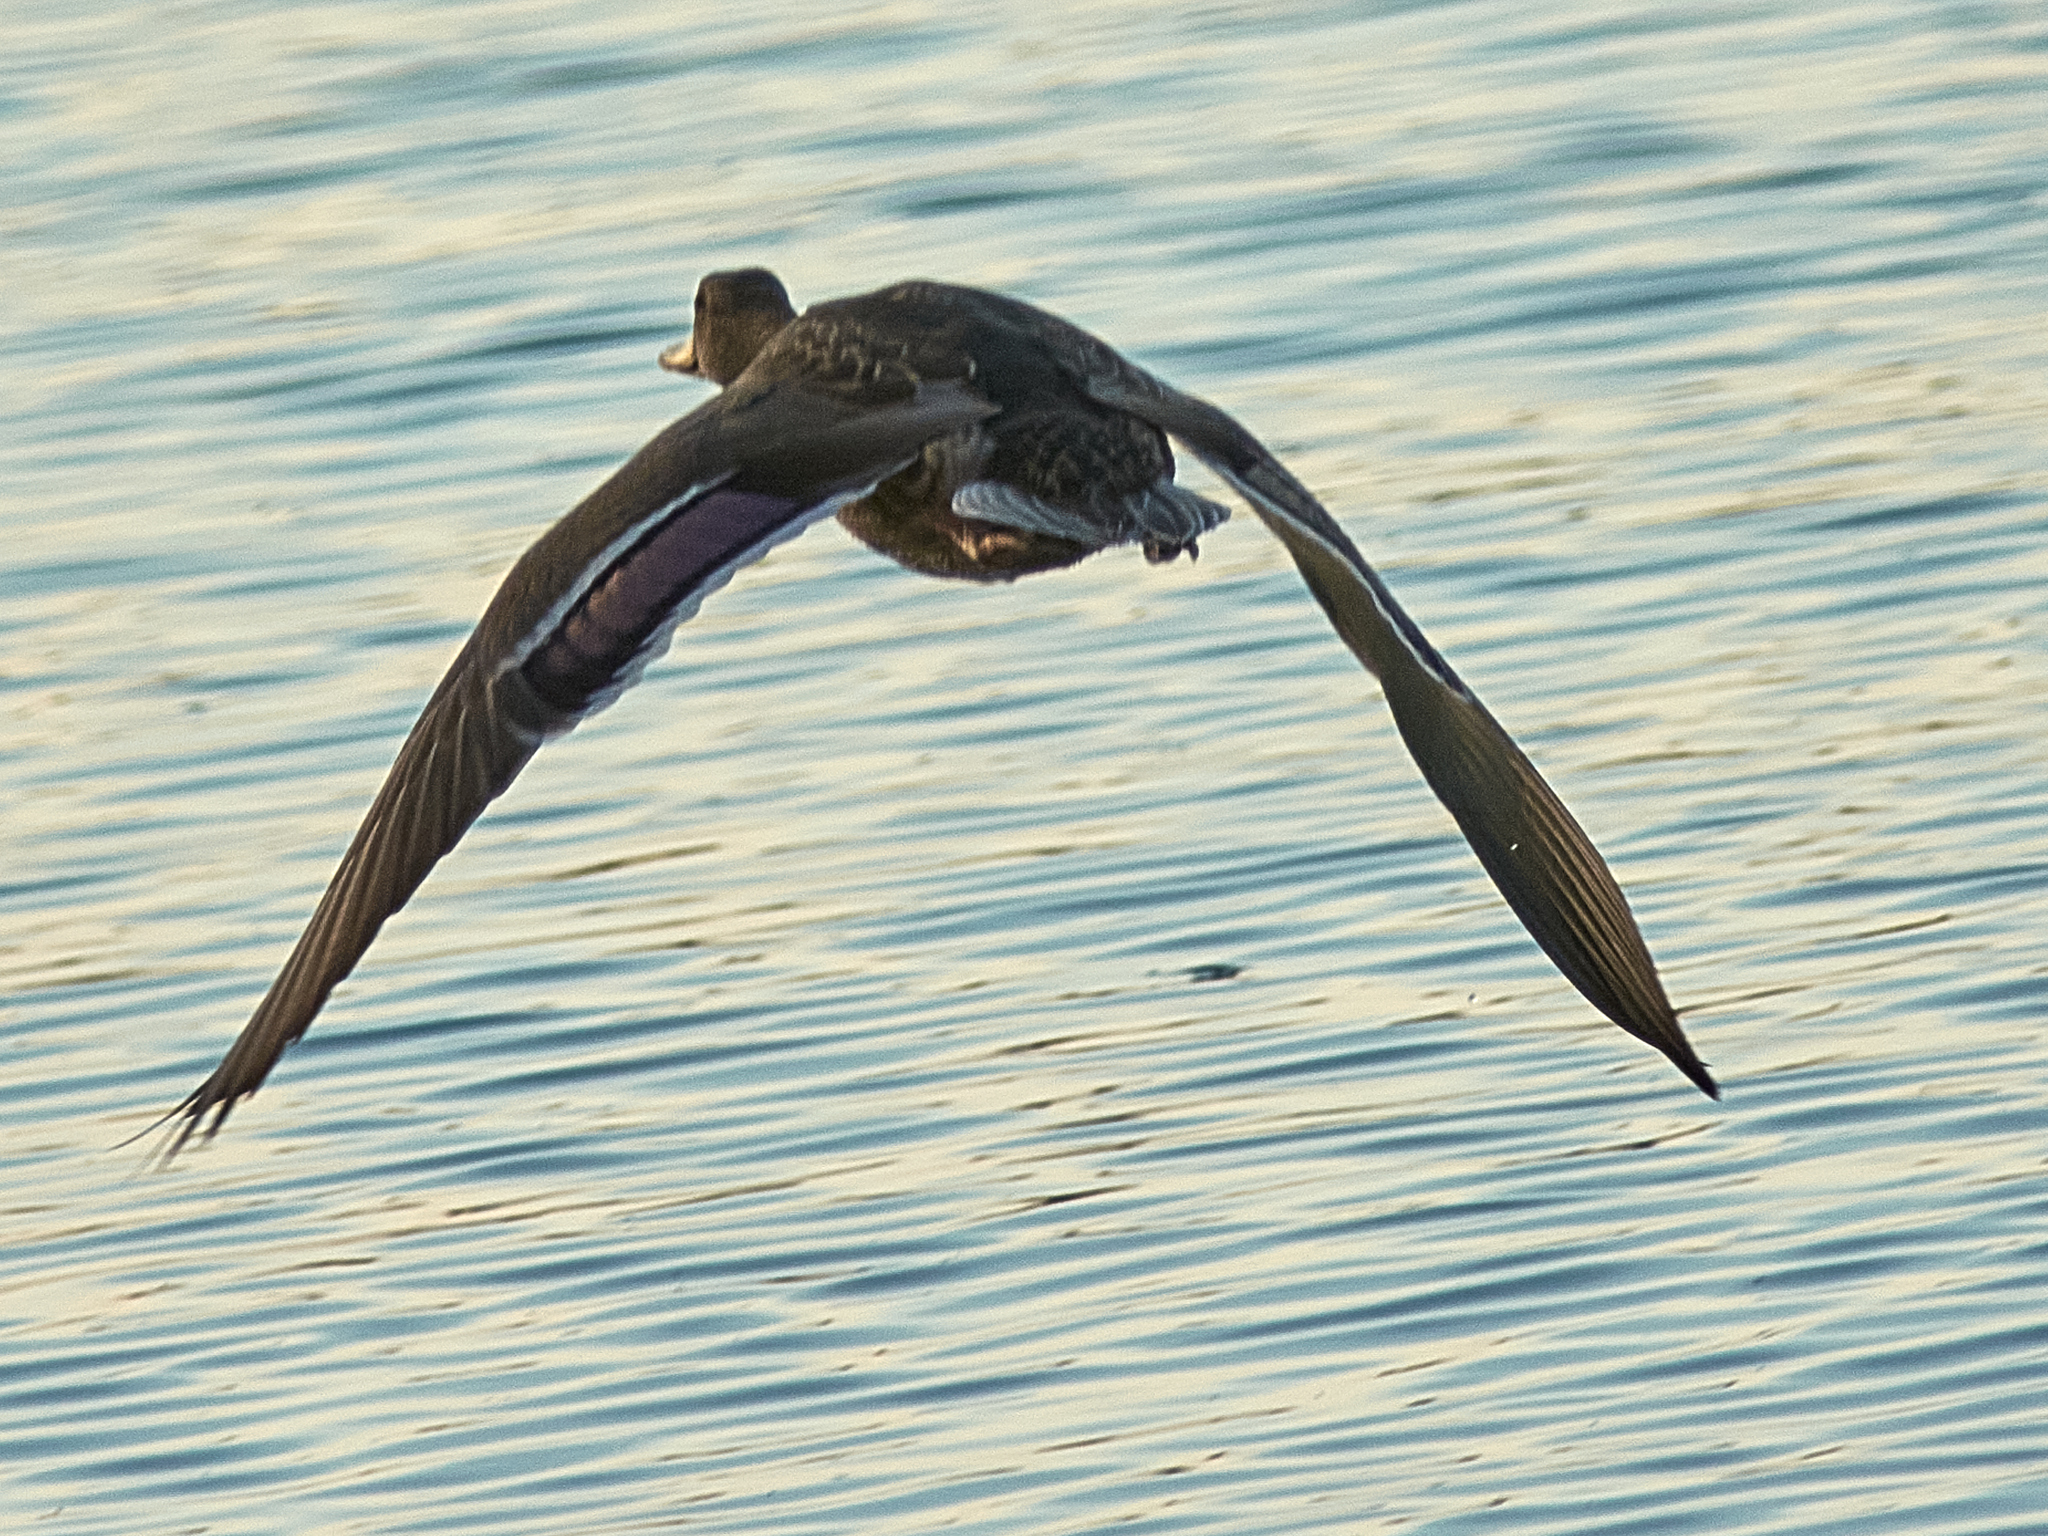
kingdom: Animalia
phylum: Chordata
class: Aves
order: Anseriformes
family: Anatidae
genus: Anas
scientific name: Anas platyrhynchos
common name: Mallard
